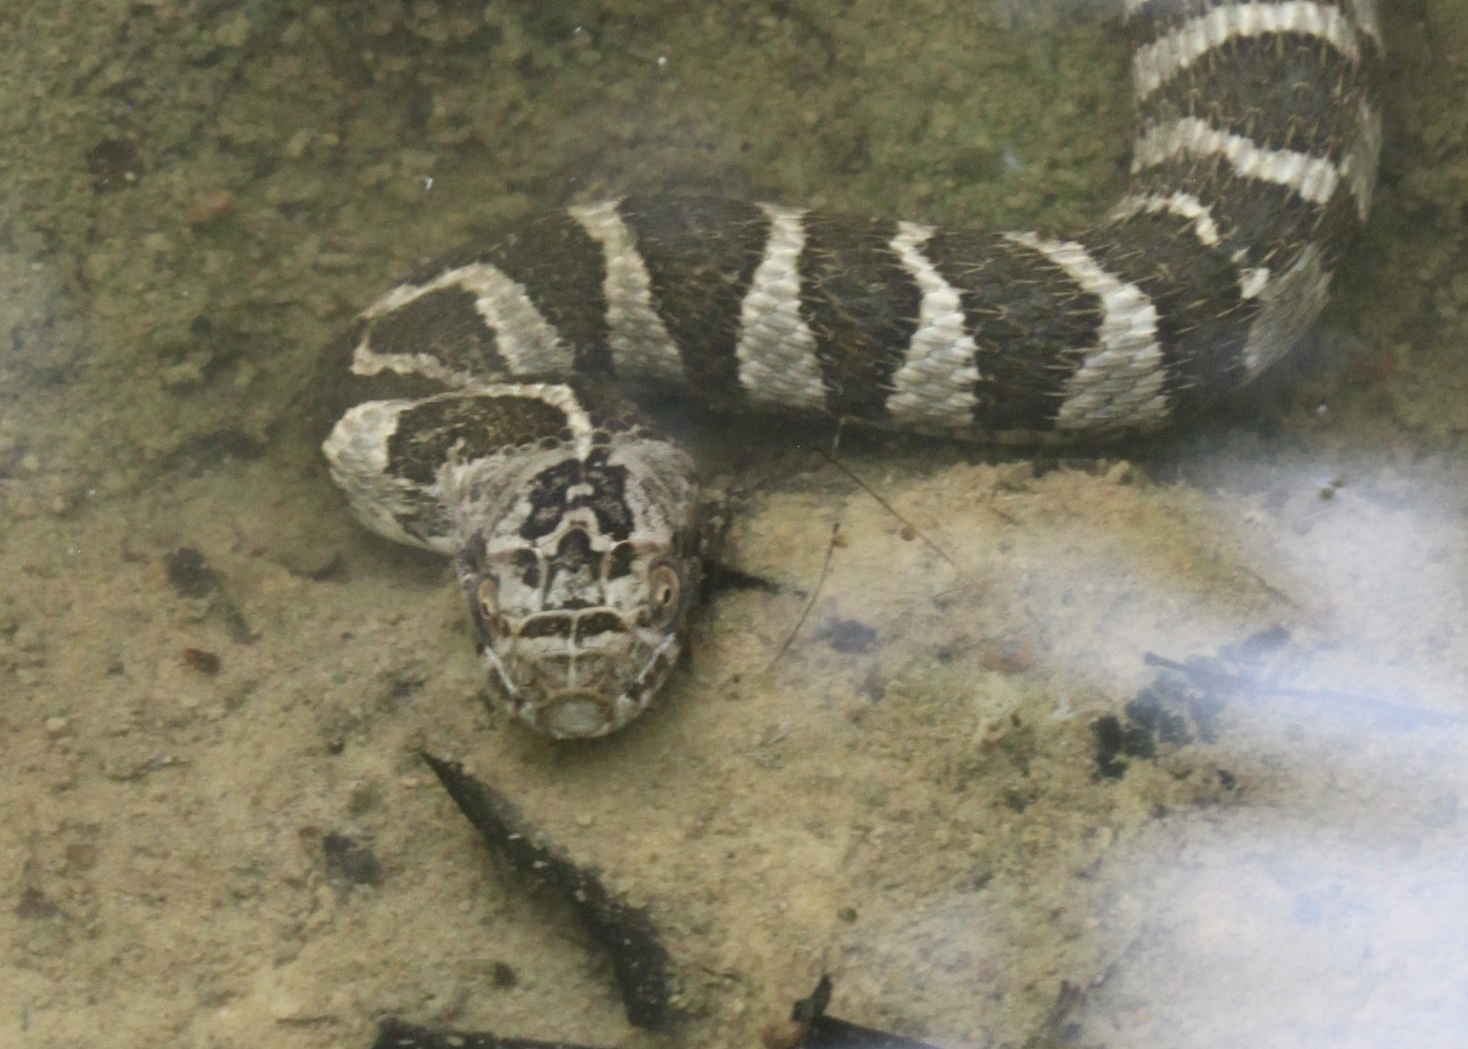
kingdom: Animalia
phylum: Chordata
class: Squamata
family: Colubridae
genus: Nerodia
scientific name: Nerodia sipedon
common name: Northern water snake
